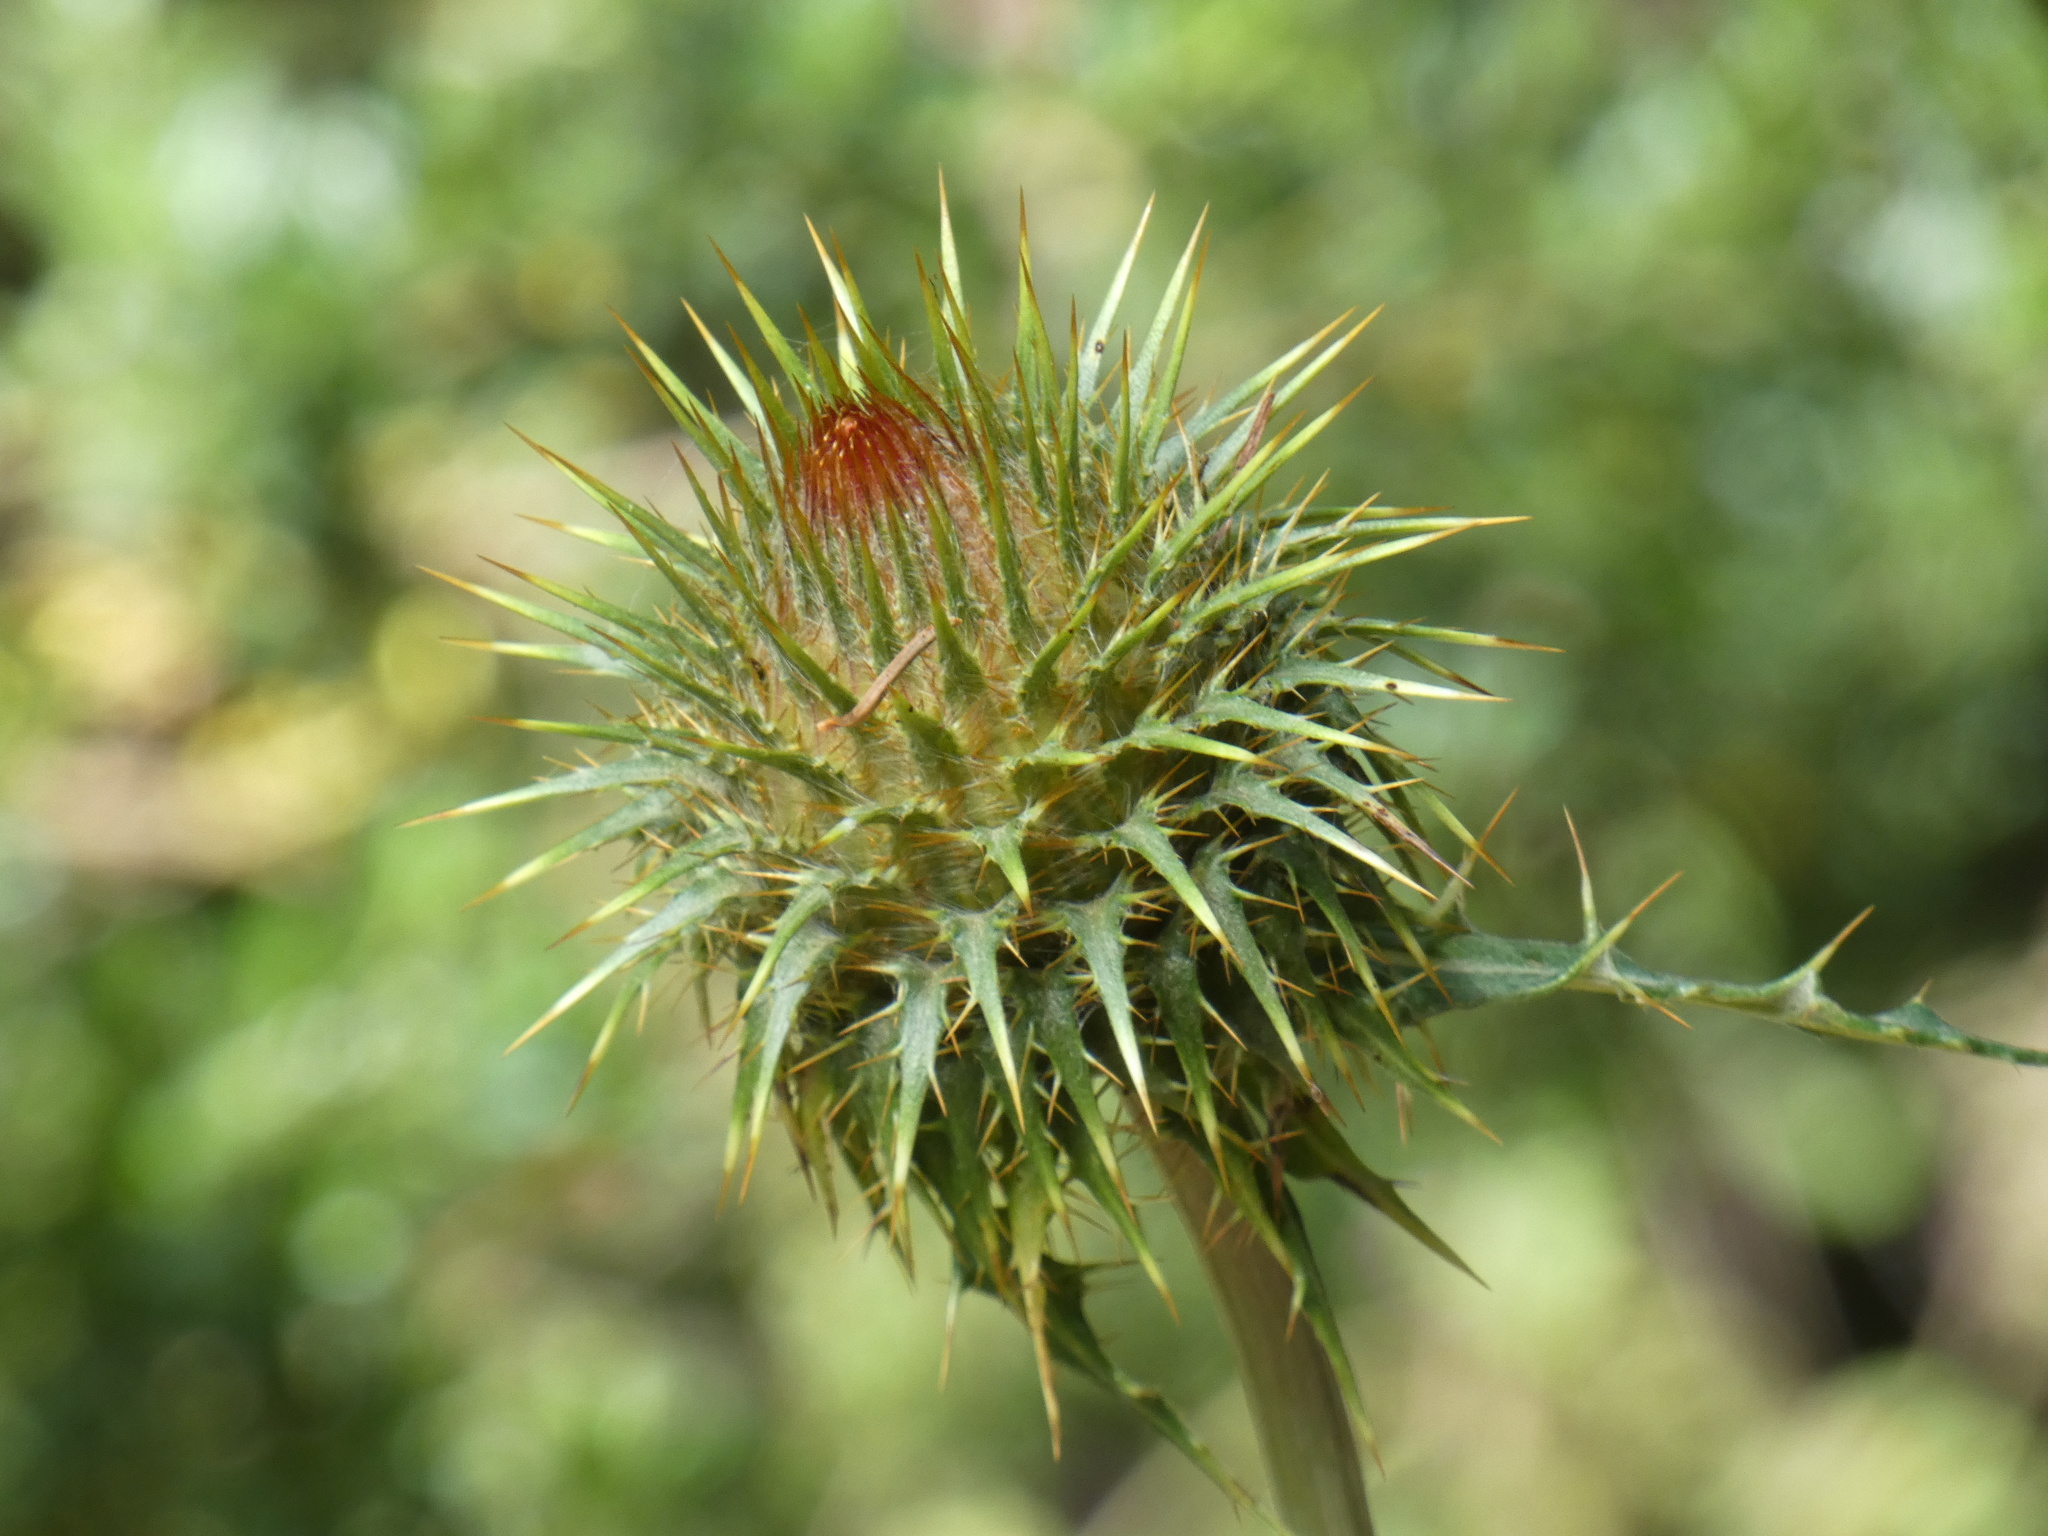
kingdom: Plantae
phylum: Tracheophyta
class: Magnoliopsida
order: Asterales
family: Asteraceae
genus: Cirsium
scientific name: Cirsium ehrenbergii
